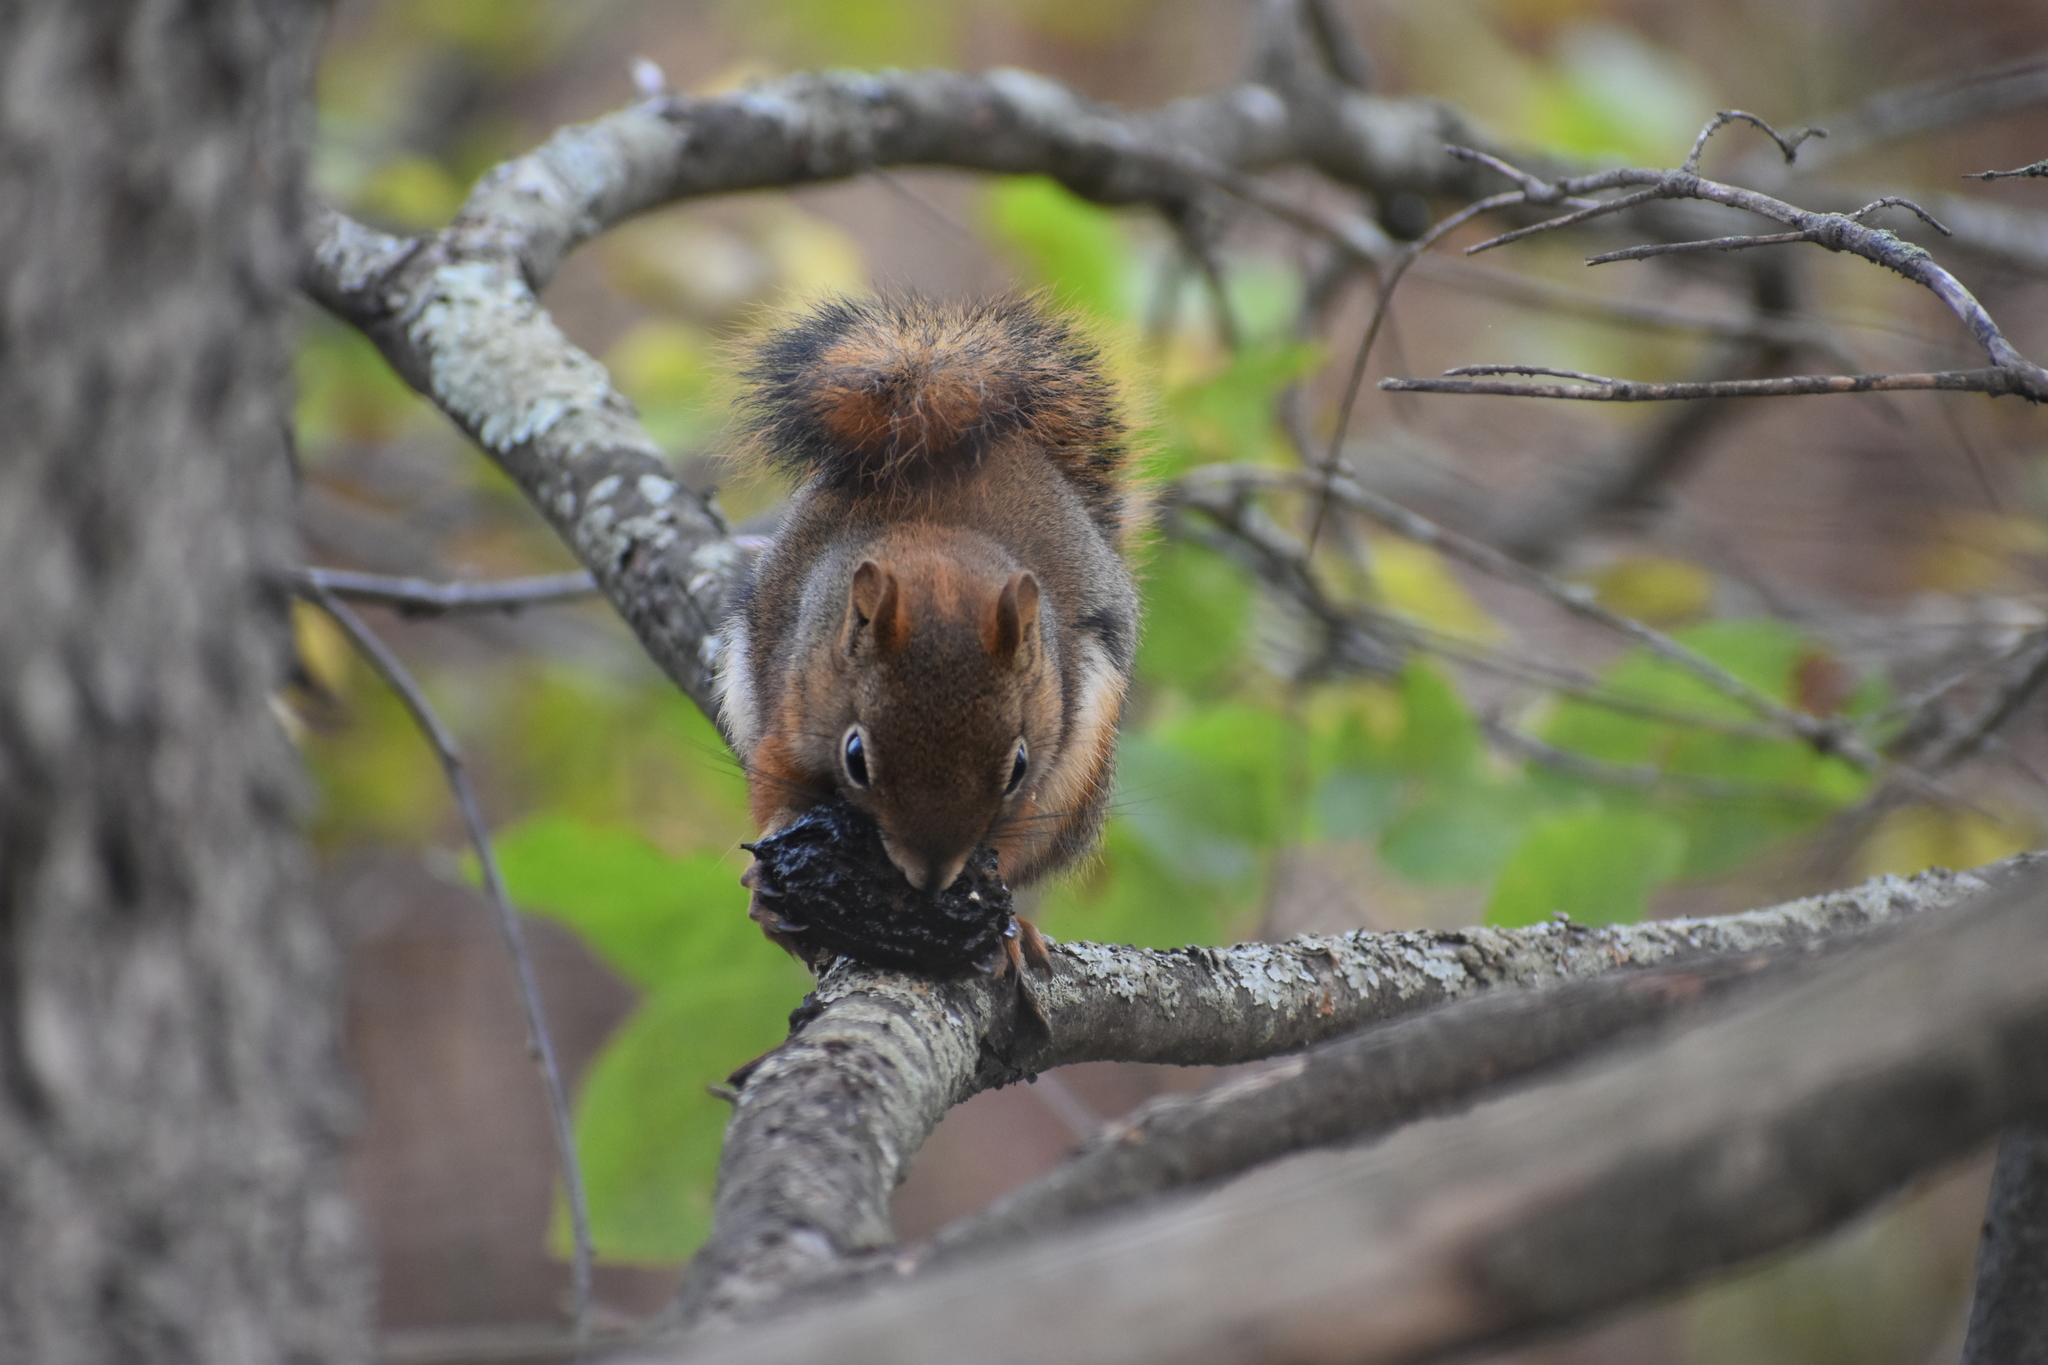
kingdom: Animalia
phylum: Chordata
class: Mammalia
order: Rodentia
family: Sciuridae
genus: Tamiasciurus
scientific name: Tamiasciurus hudsonicus
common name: Red squirrel
